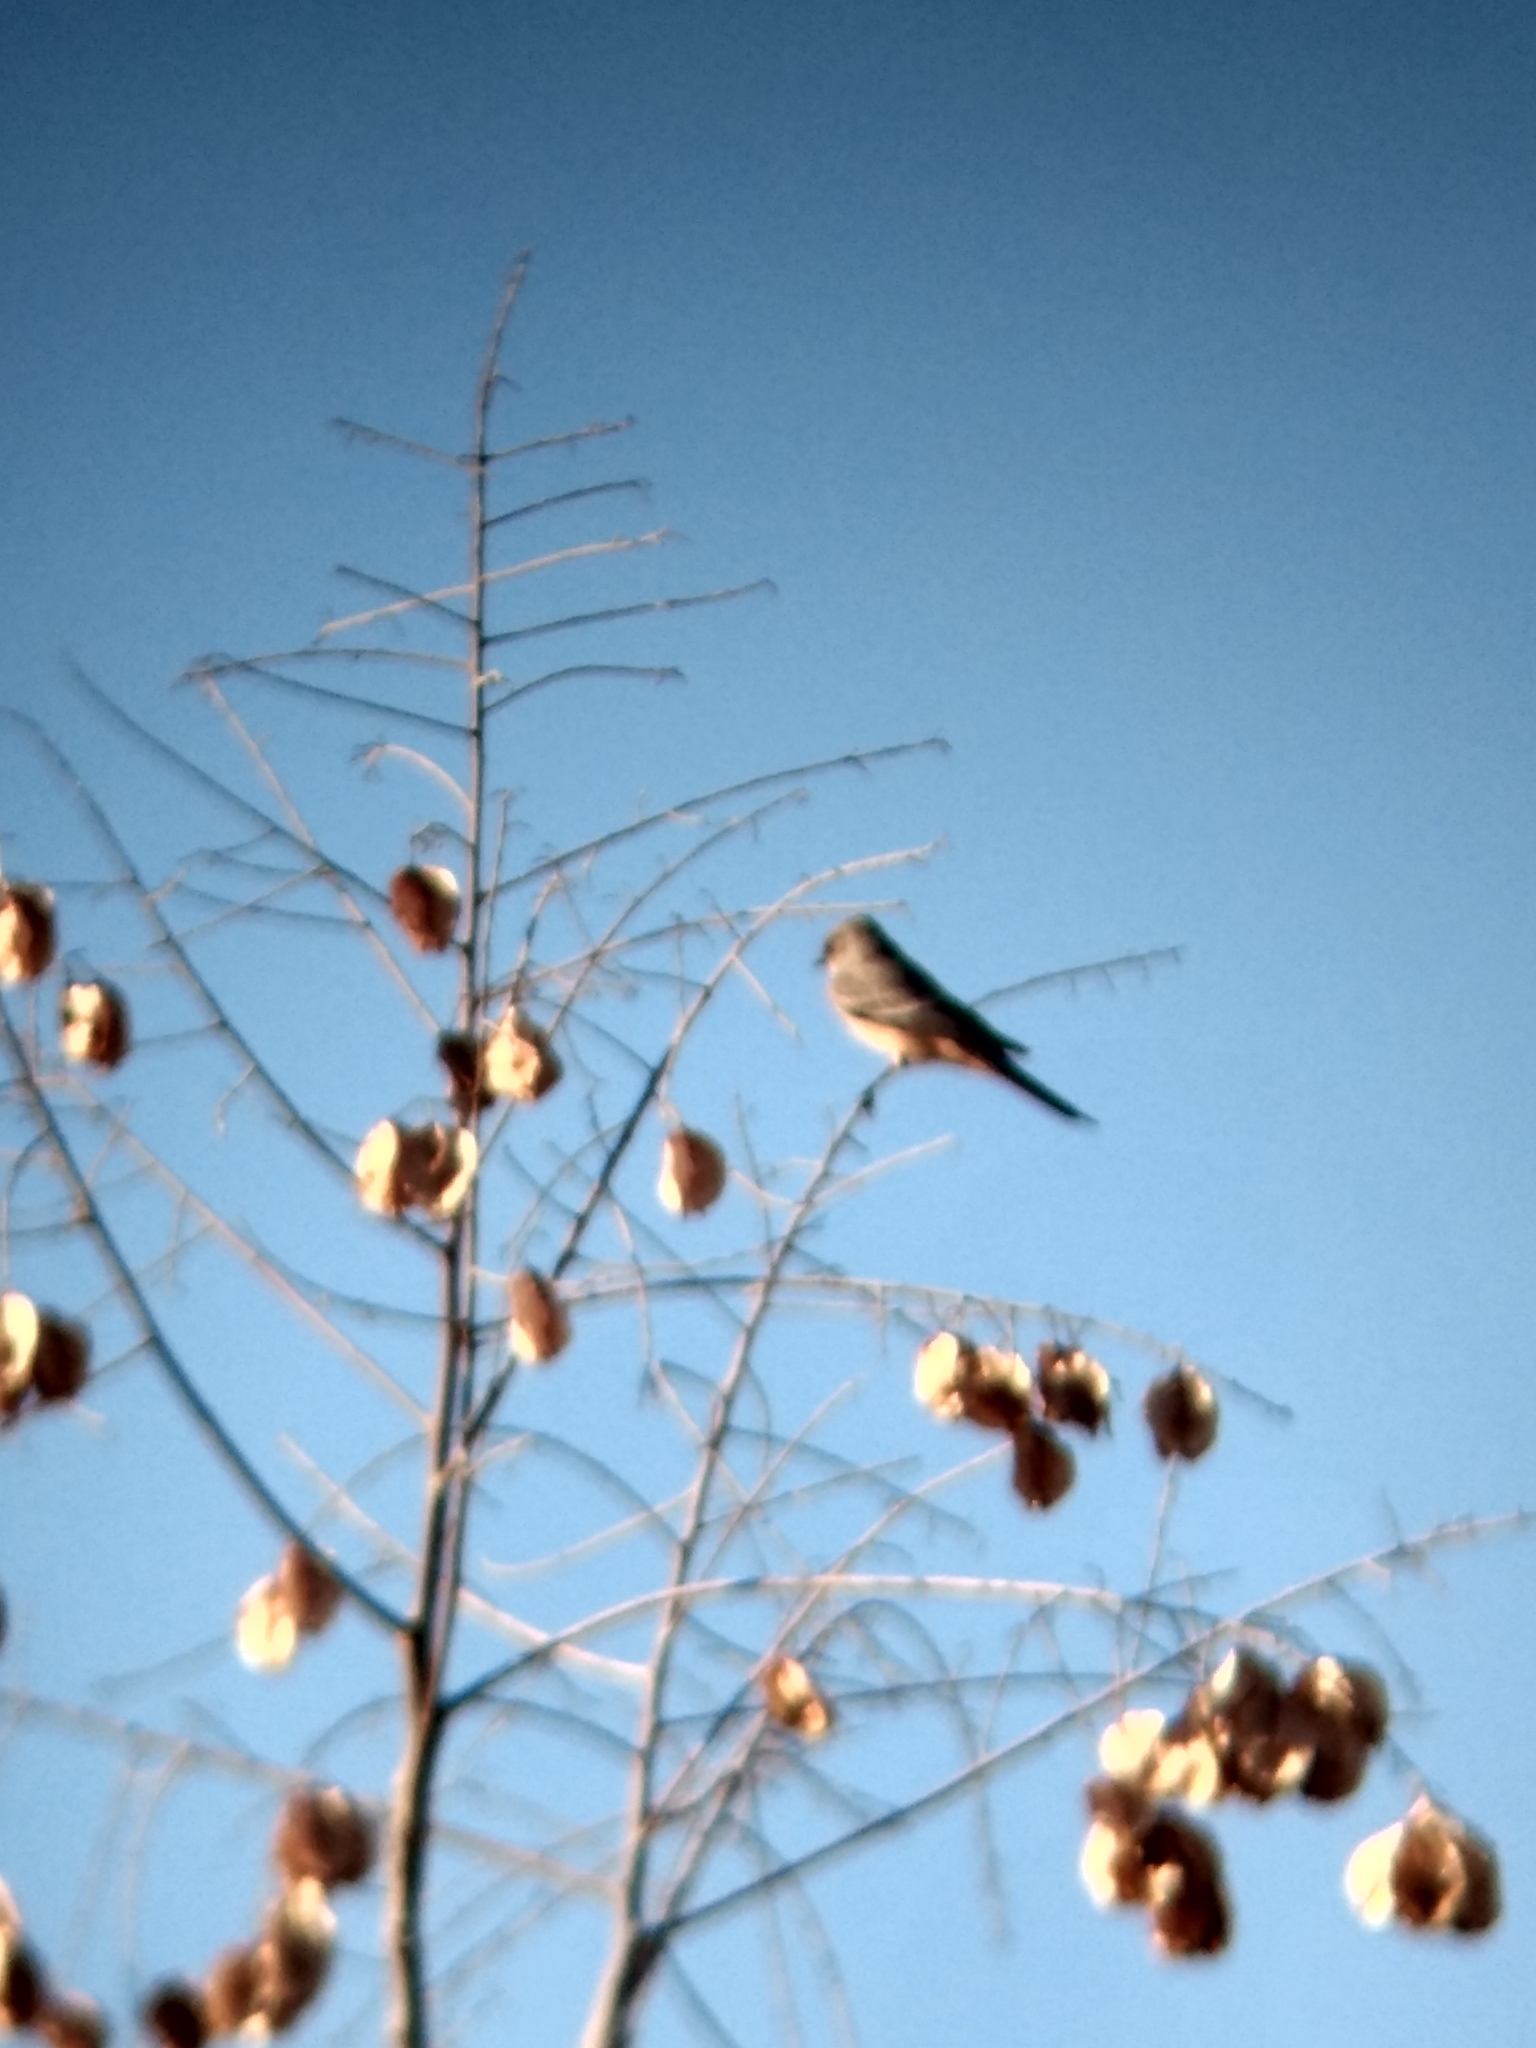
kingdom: Animalia
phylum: Chordata
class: Aves
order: Passeriformes
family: Tyrannidae
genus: Sayornis
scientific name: Sayornis saya
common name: Say's phoebe
